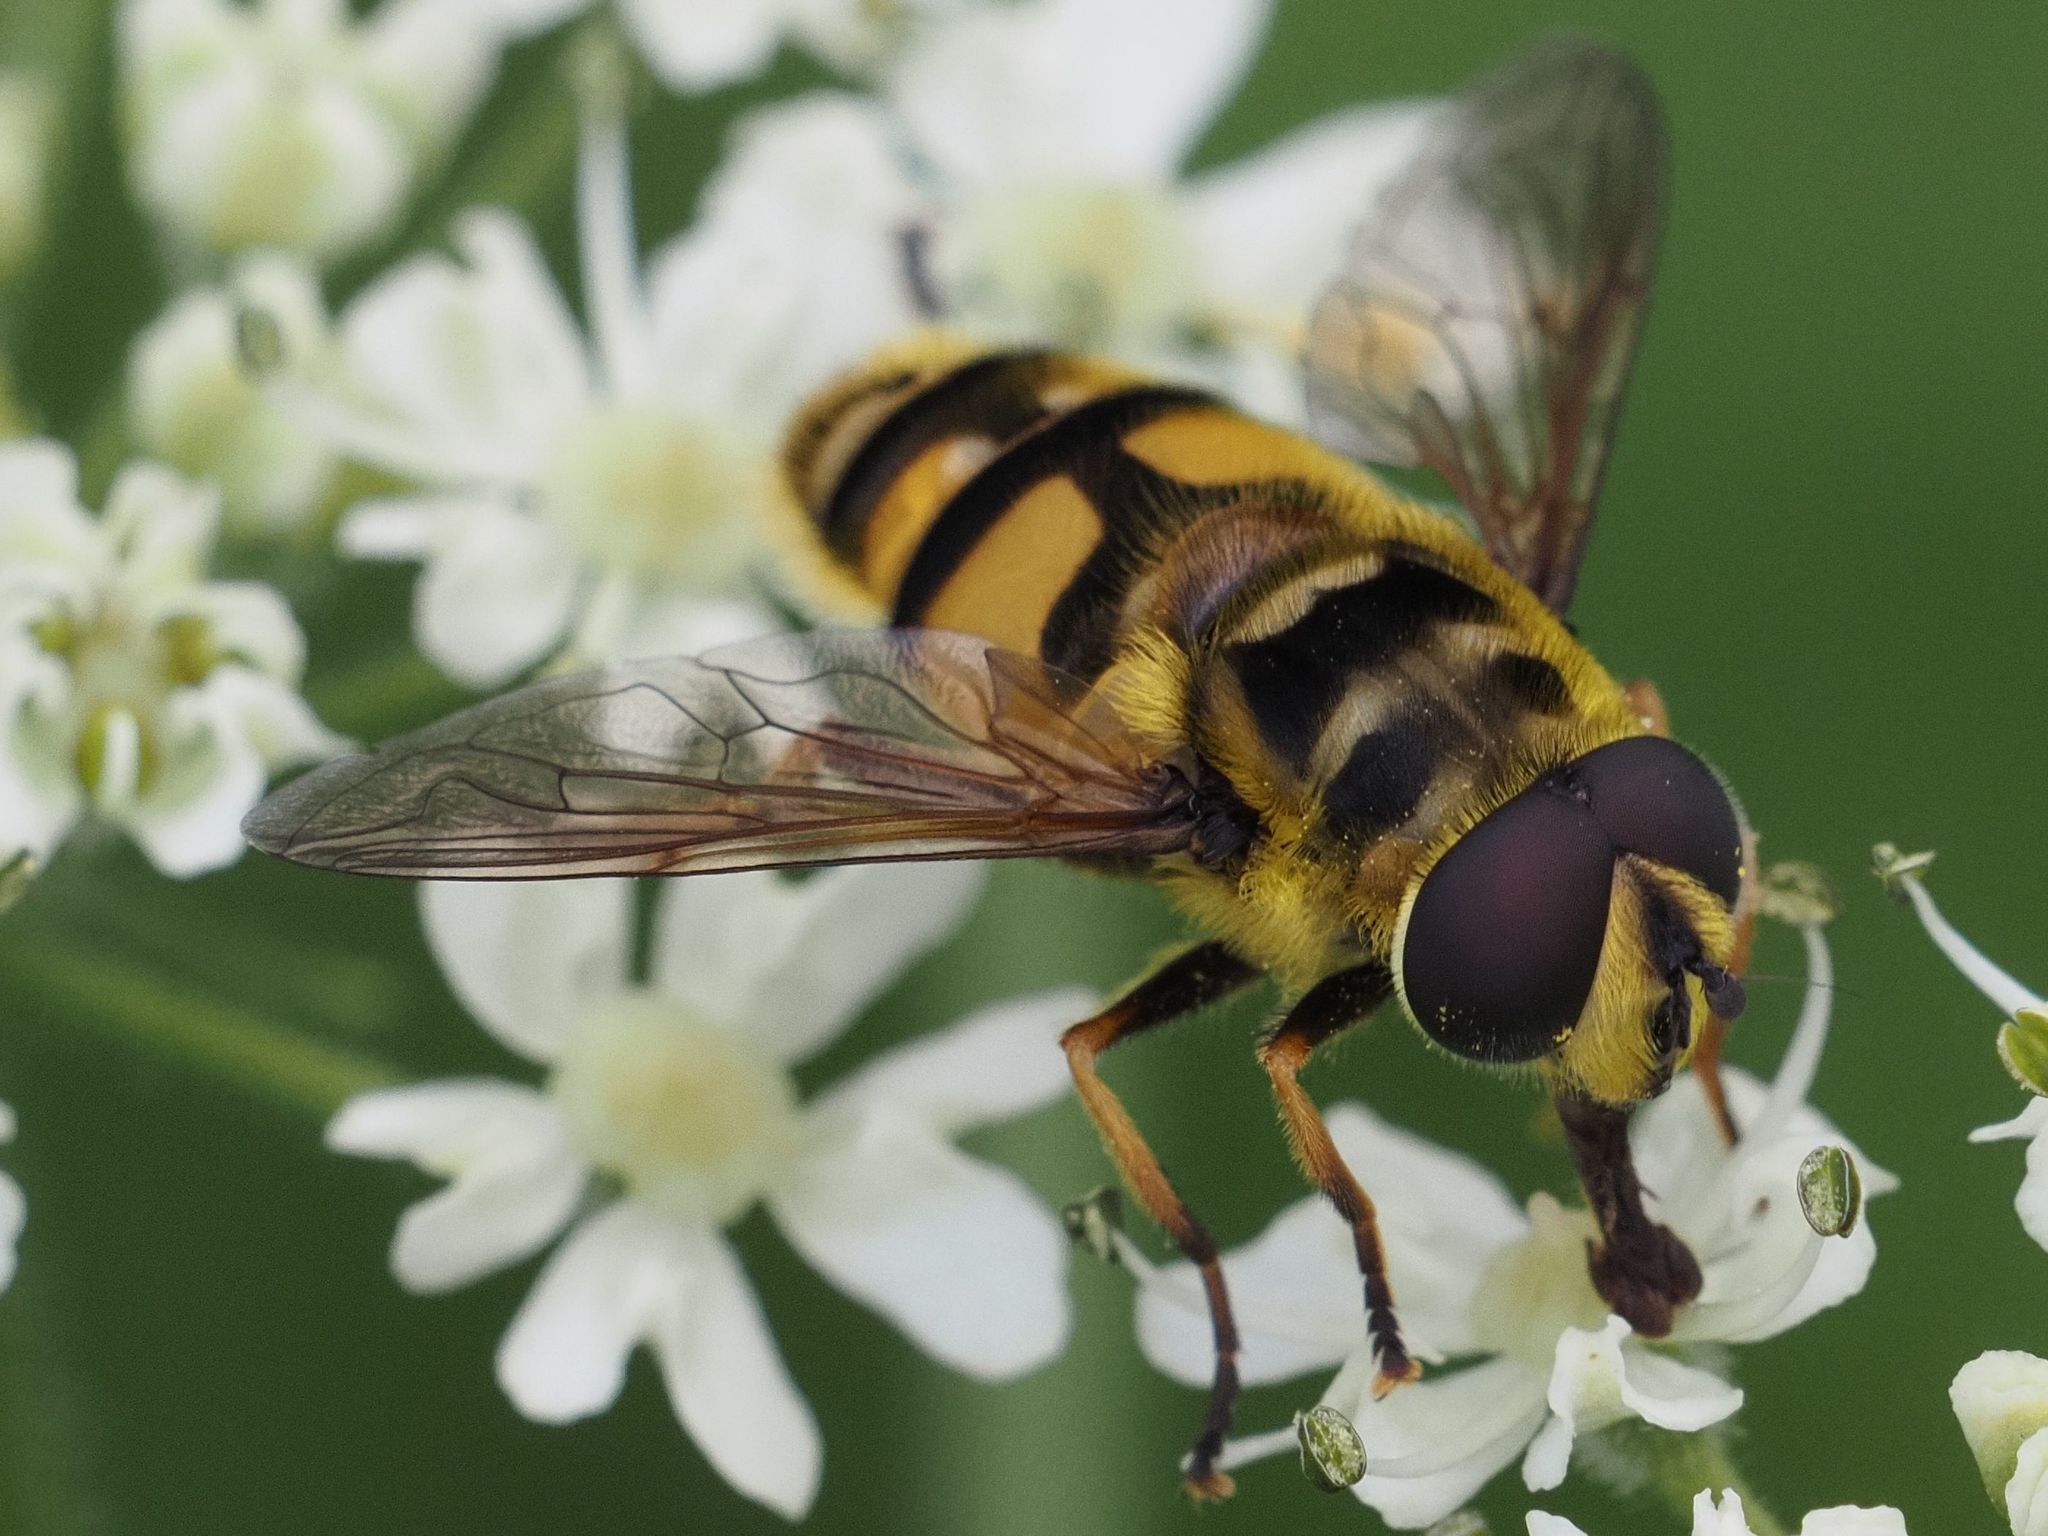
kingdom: Animalia
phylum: Arthropoda
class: Insecta
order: Diptera
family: Syrphidae
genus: Myathropa
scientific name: Myathropa florea
